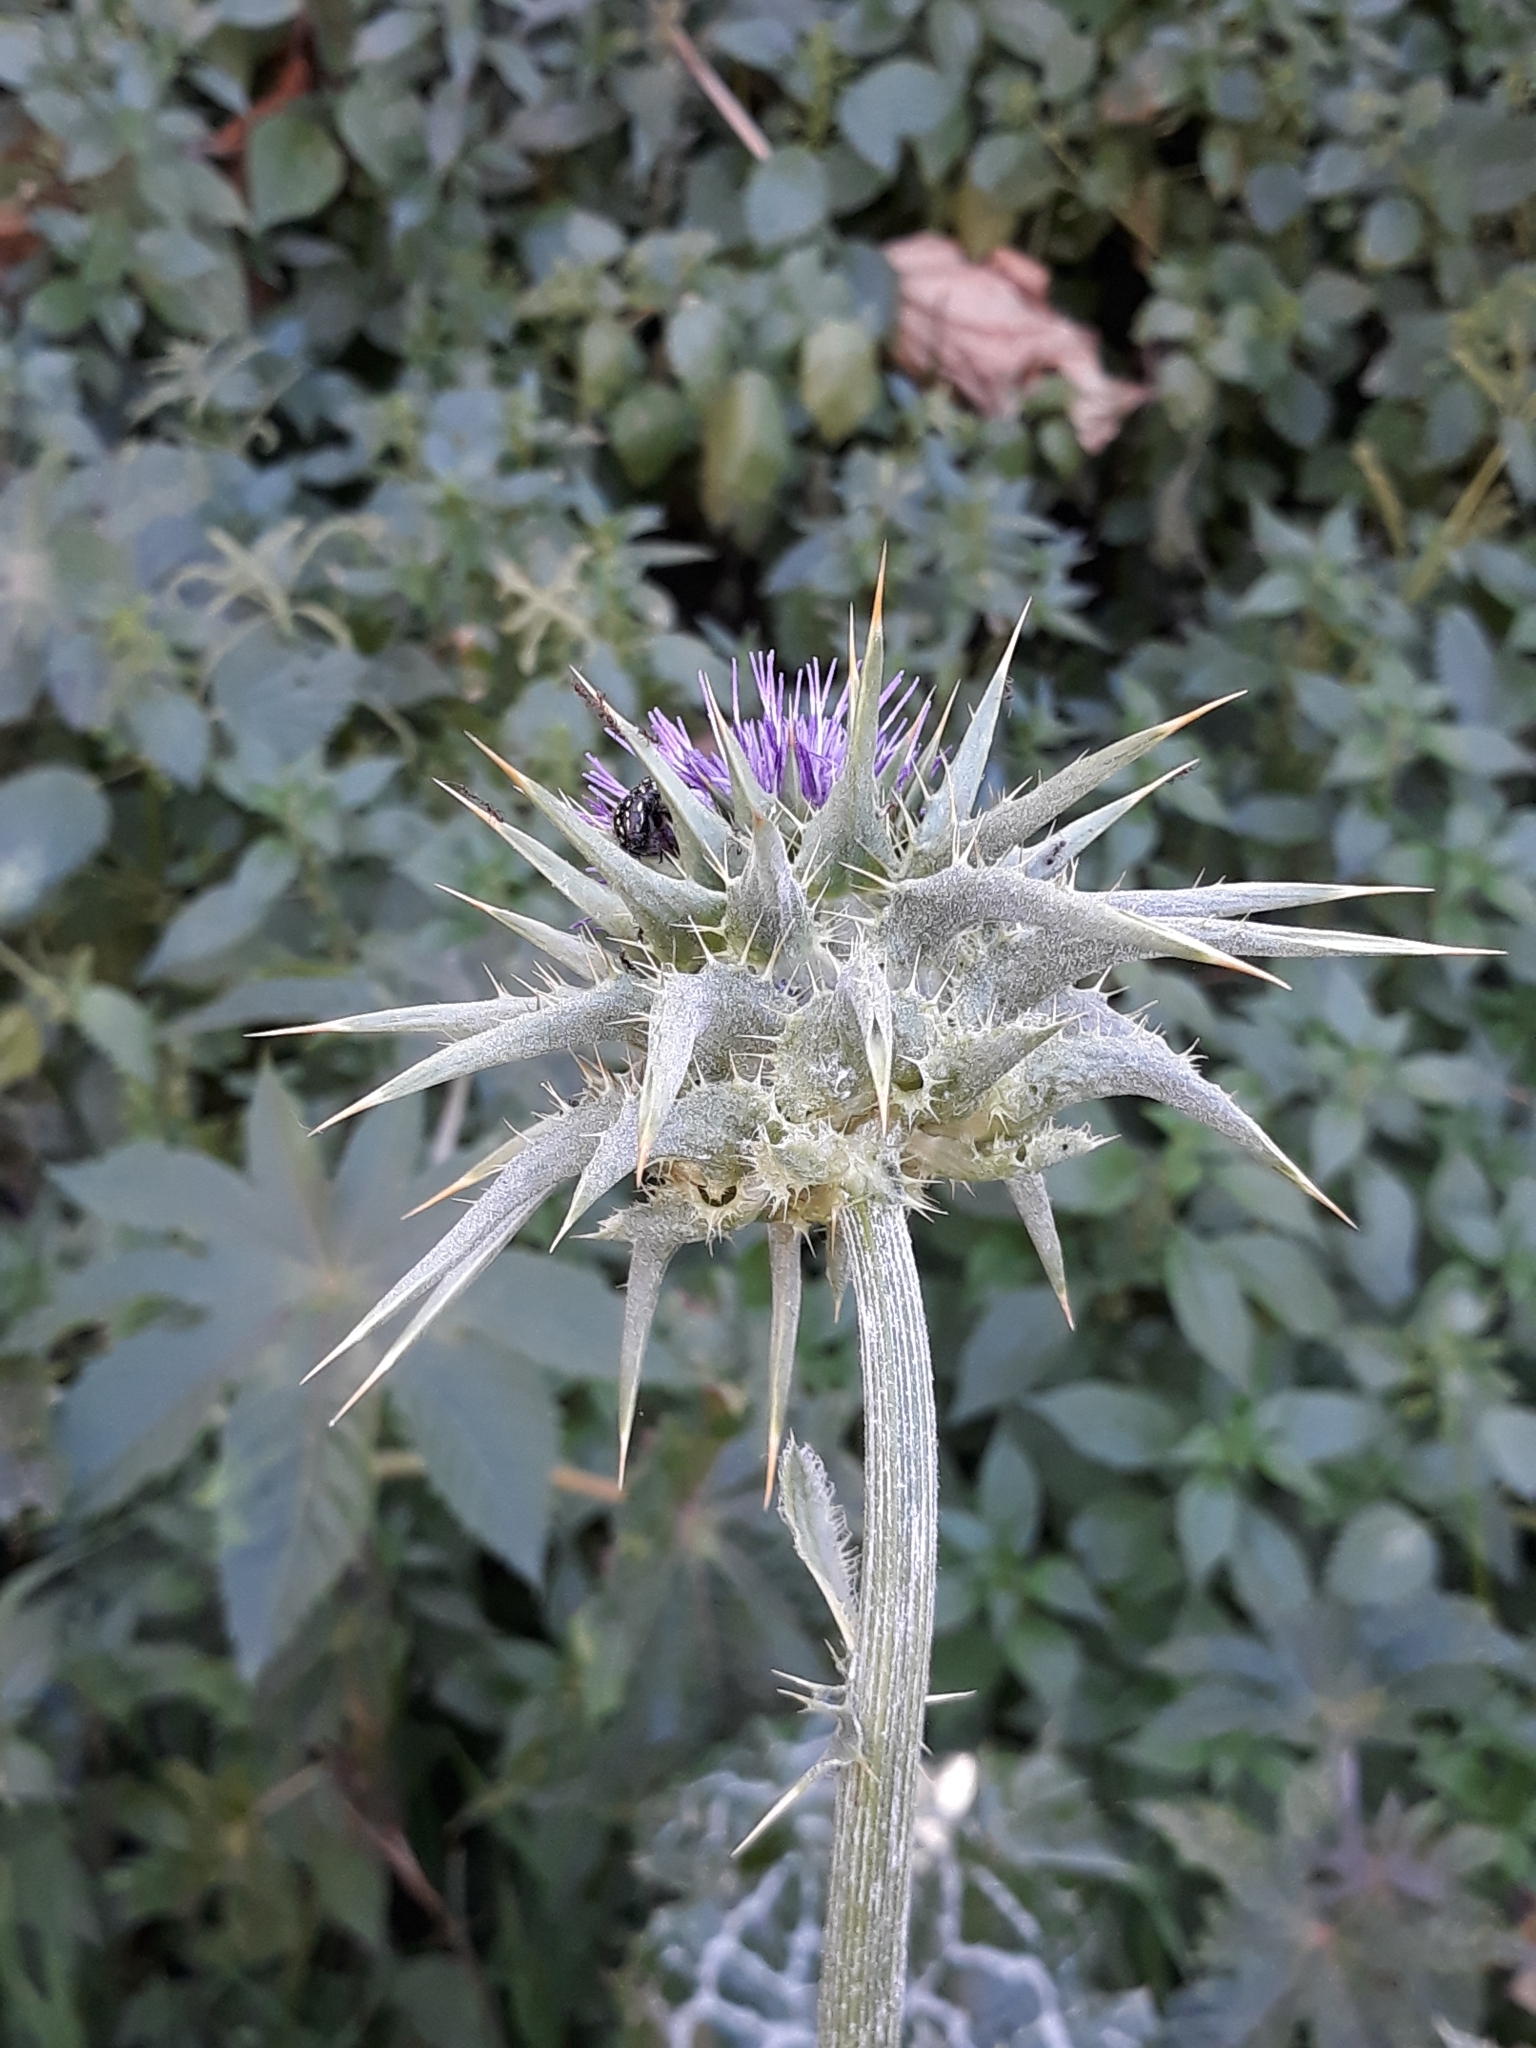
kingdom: Plantae
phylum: Tracheophyta
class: Magnoliopsida
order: Asterales
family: Asteraceae
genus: Silybum
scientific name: Silybum marianum
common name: Milk thistle
